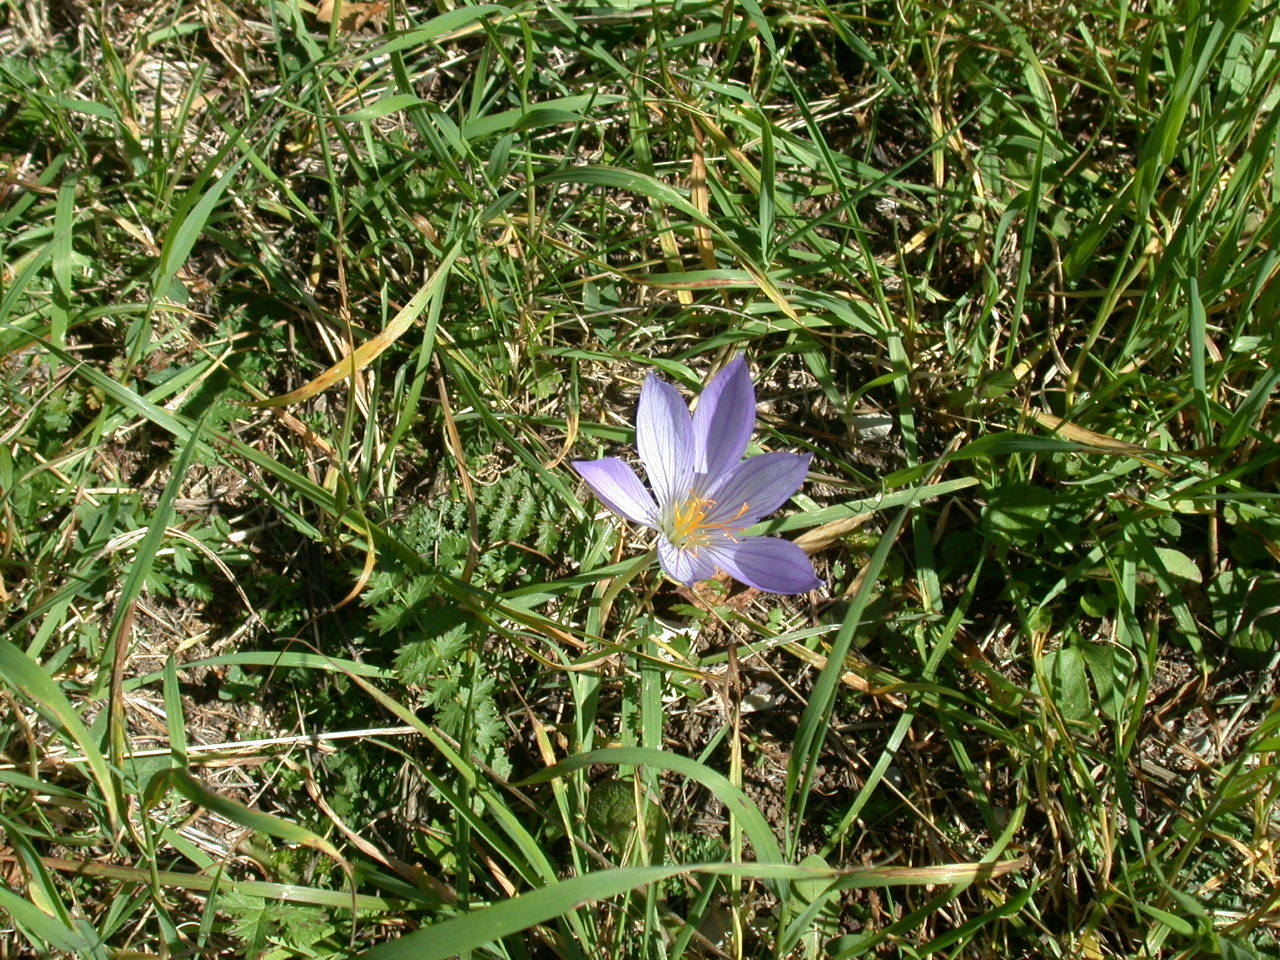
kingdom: Plantae
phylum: Tracheophyta
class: Liliopsida
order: Asparagales
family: Iridaceae
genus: Crocus
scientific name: Crocus speciosus
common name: Bieberstein's crocus
